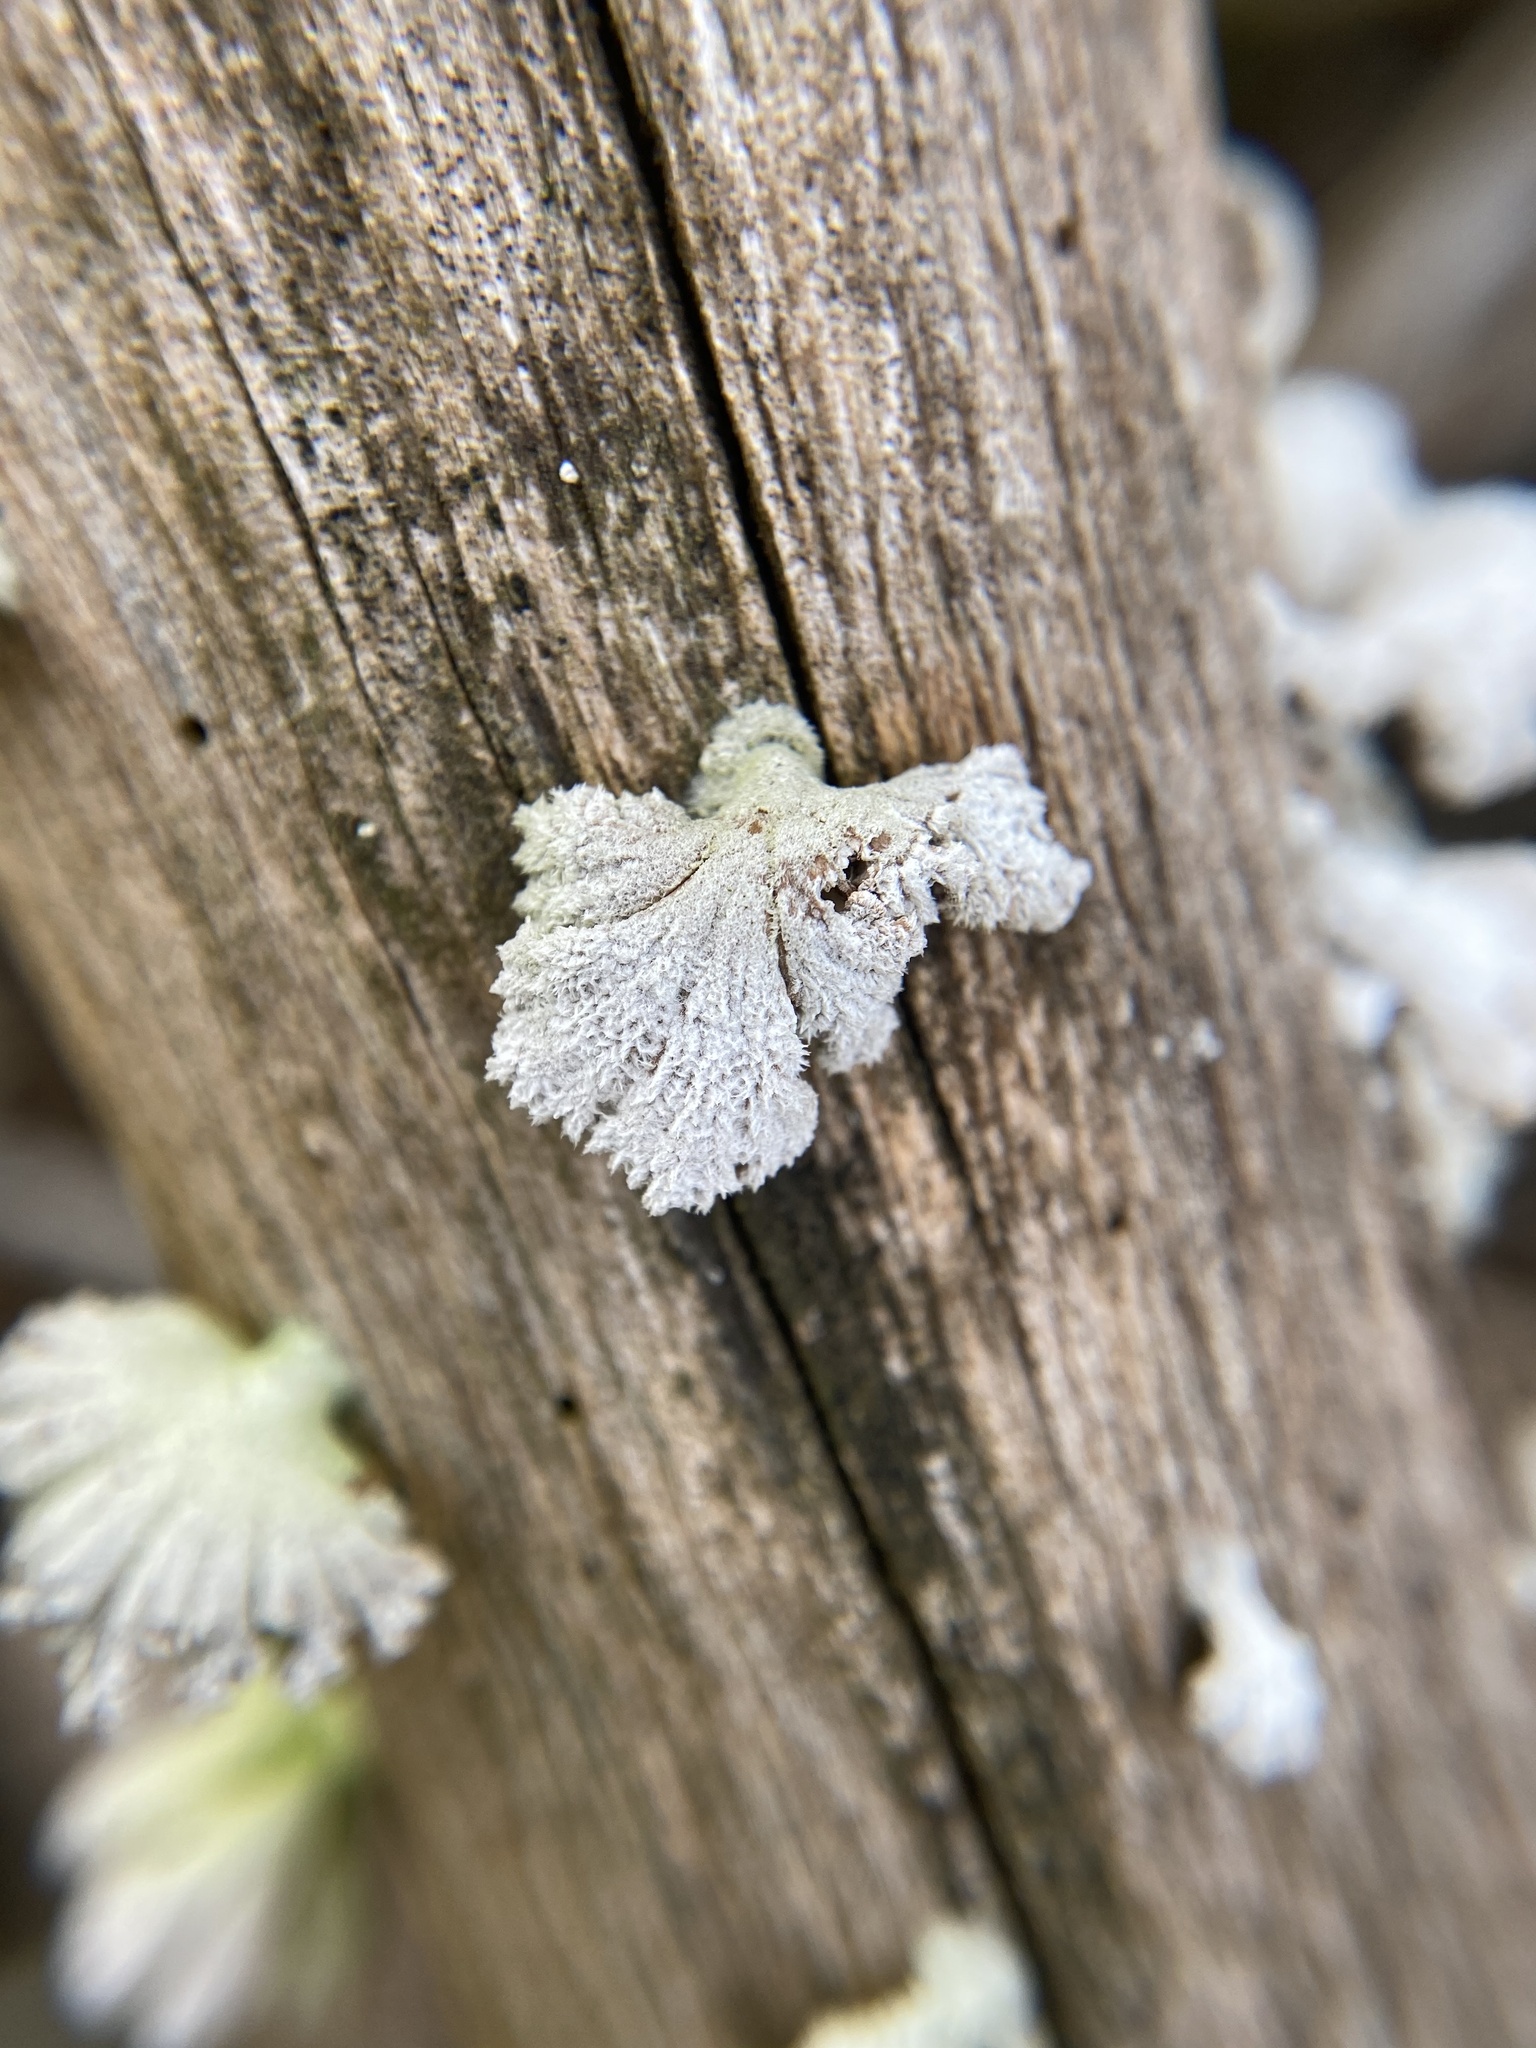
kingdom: Fungi
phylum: Basidiomycota
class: Agaricomycetes
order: Agaricales
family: Schizophyllaceae
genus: Schizophyllum
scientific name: Schizophyllum commune
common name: Common porecrust
